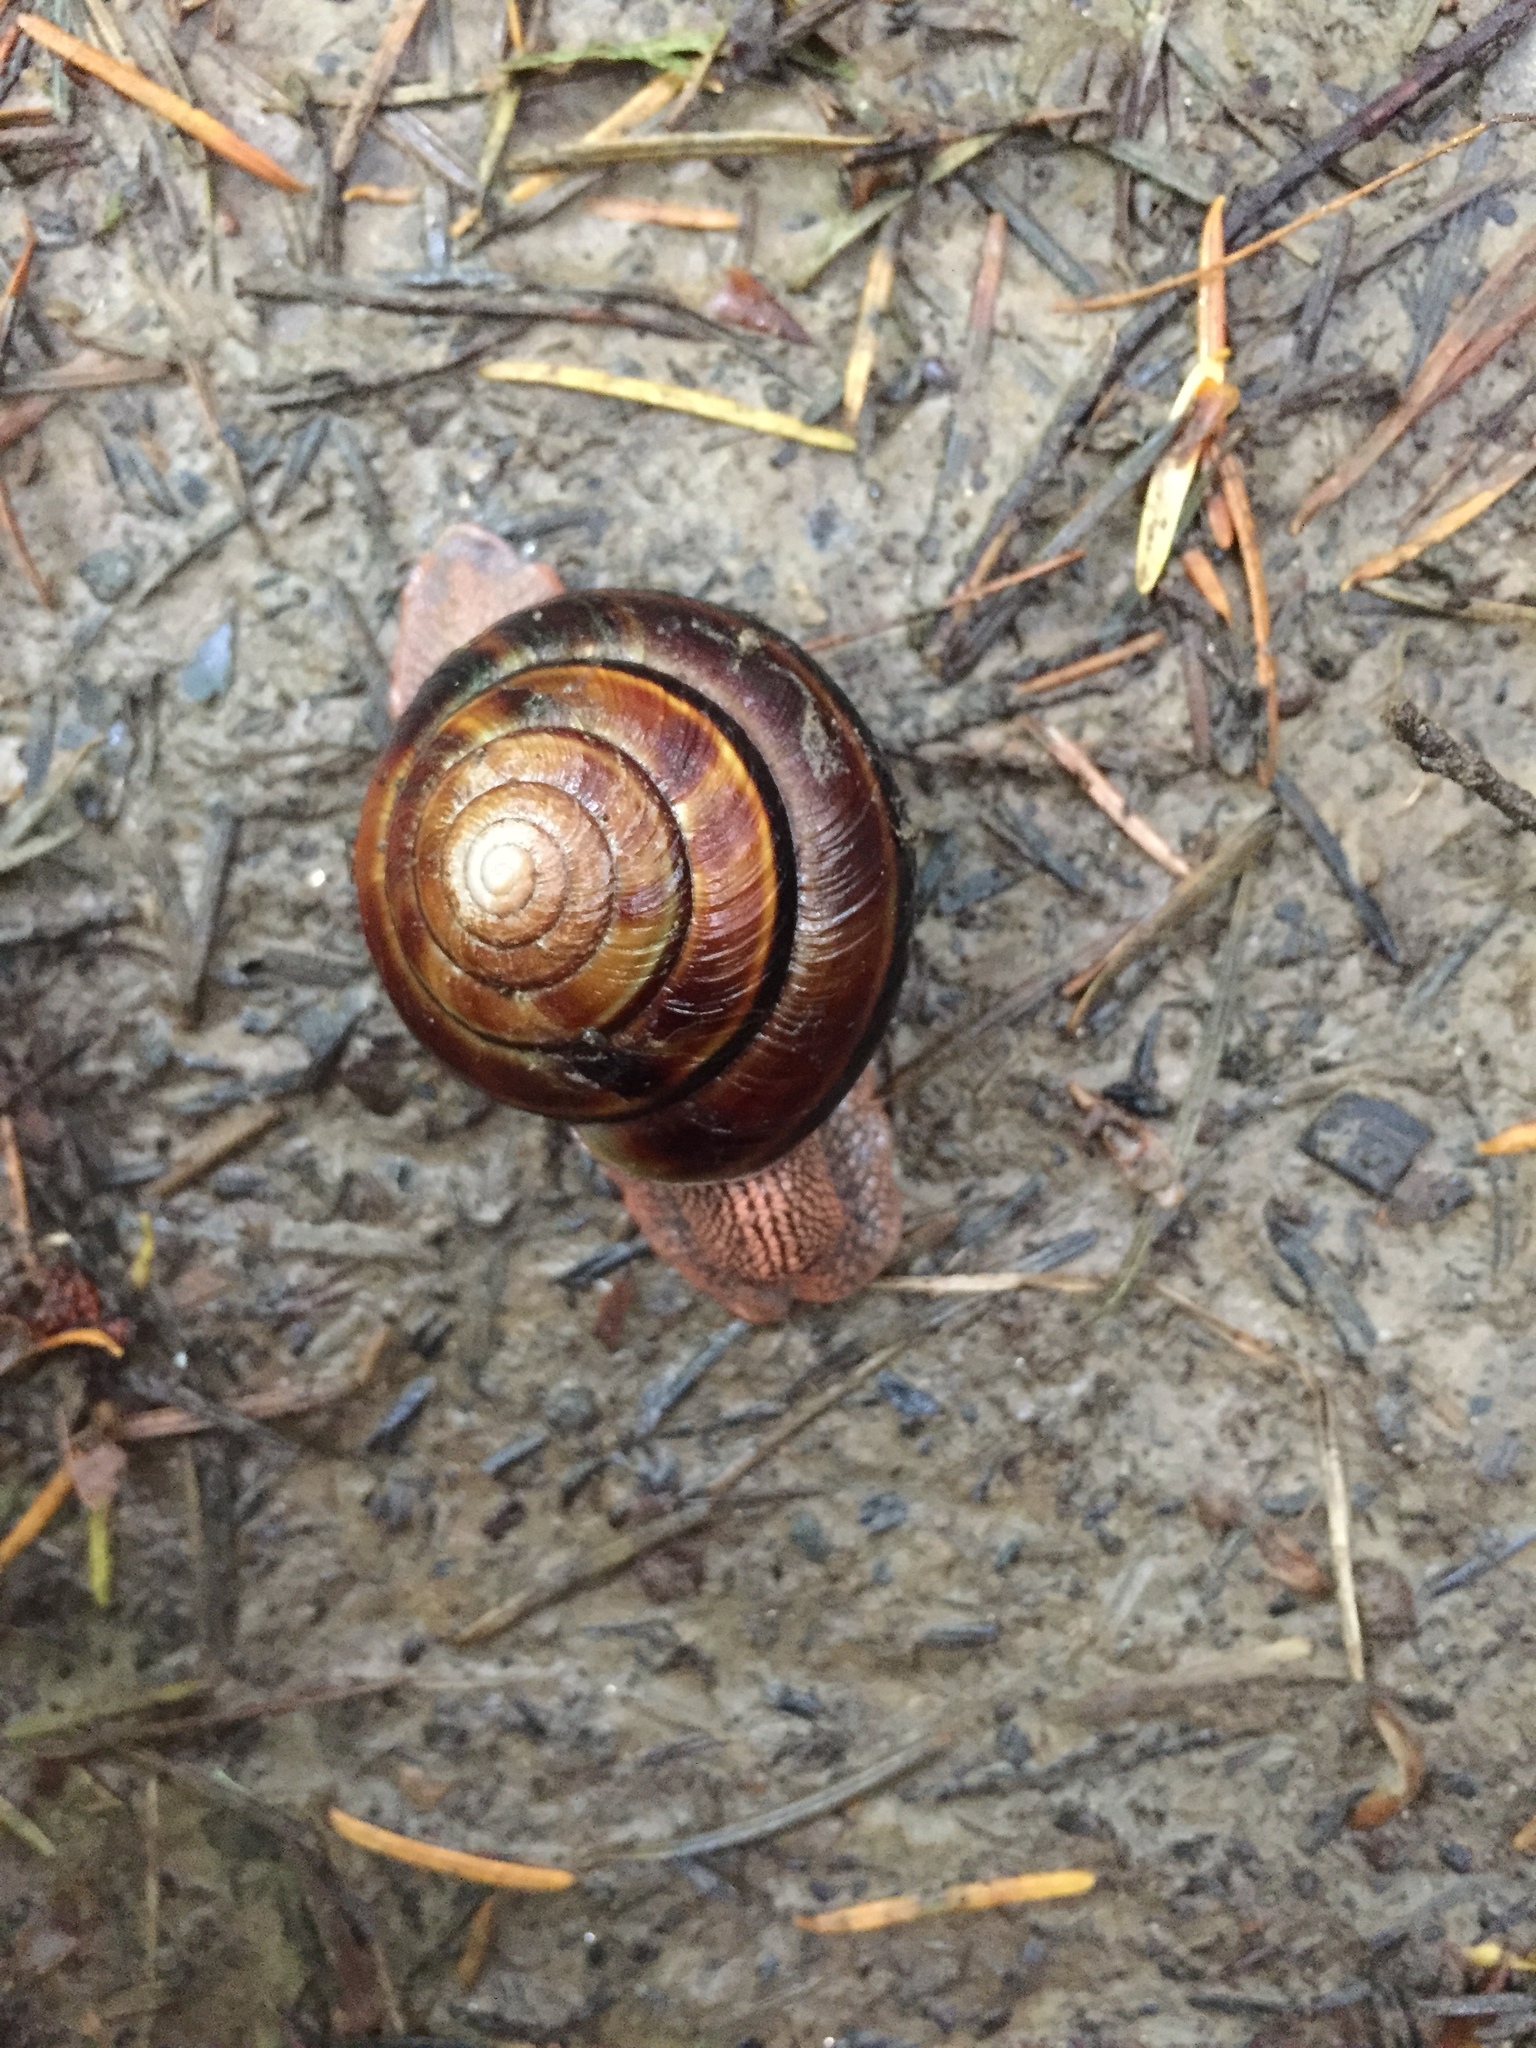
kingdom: Animalia
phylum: Mollusca
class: Gastropoda
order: Stylommatophora
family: Xanthonychidae
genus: Monadenia
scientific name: Monadenia fidelis
